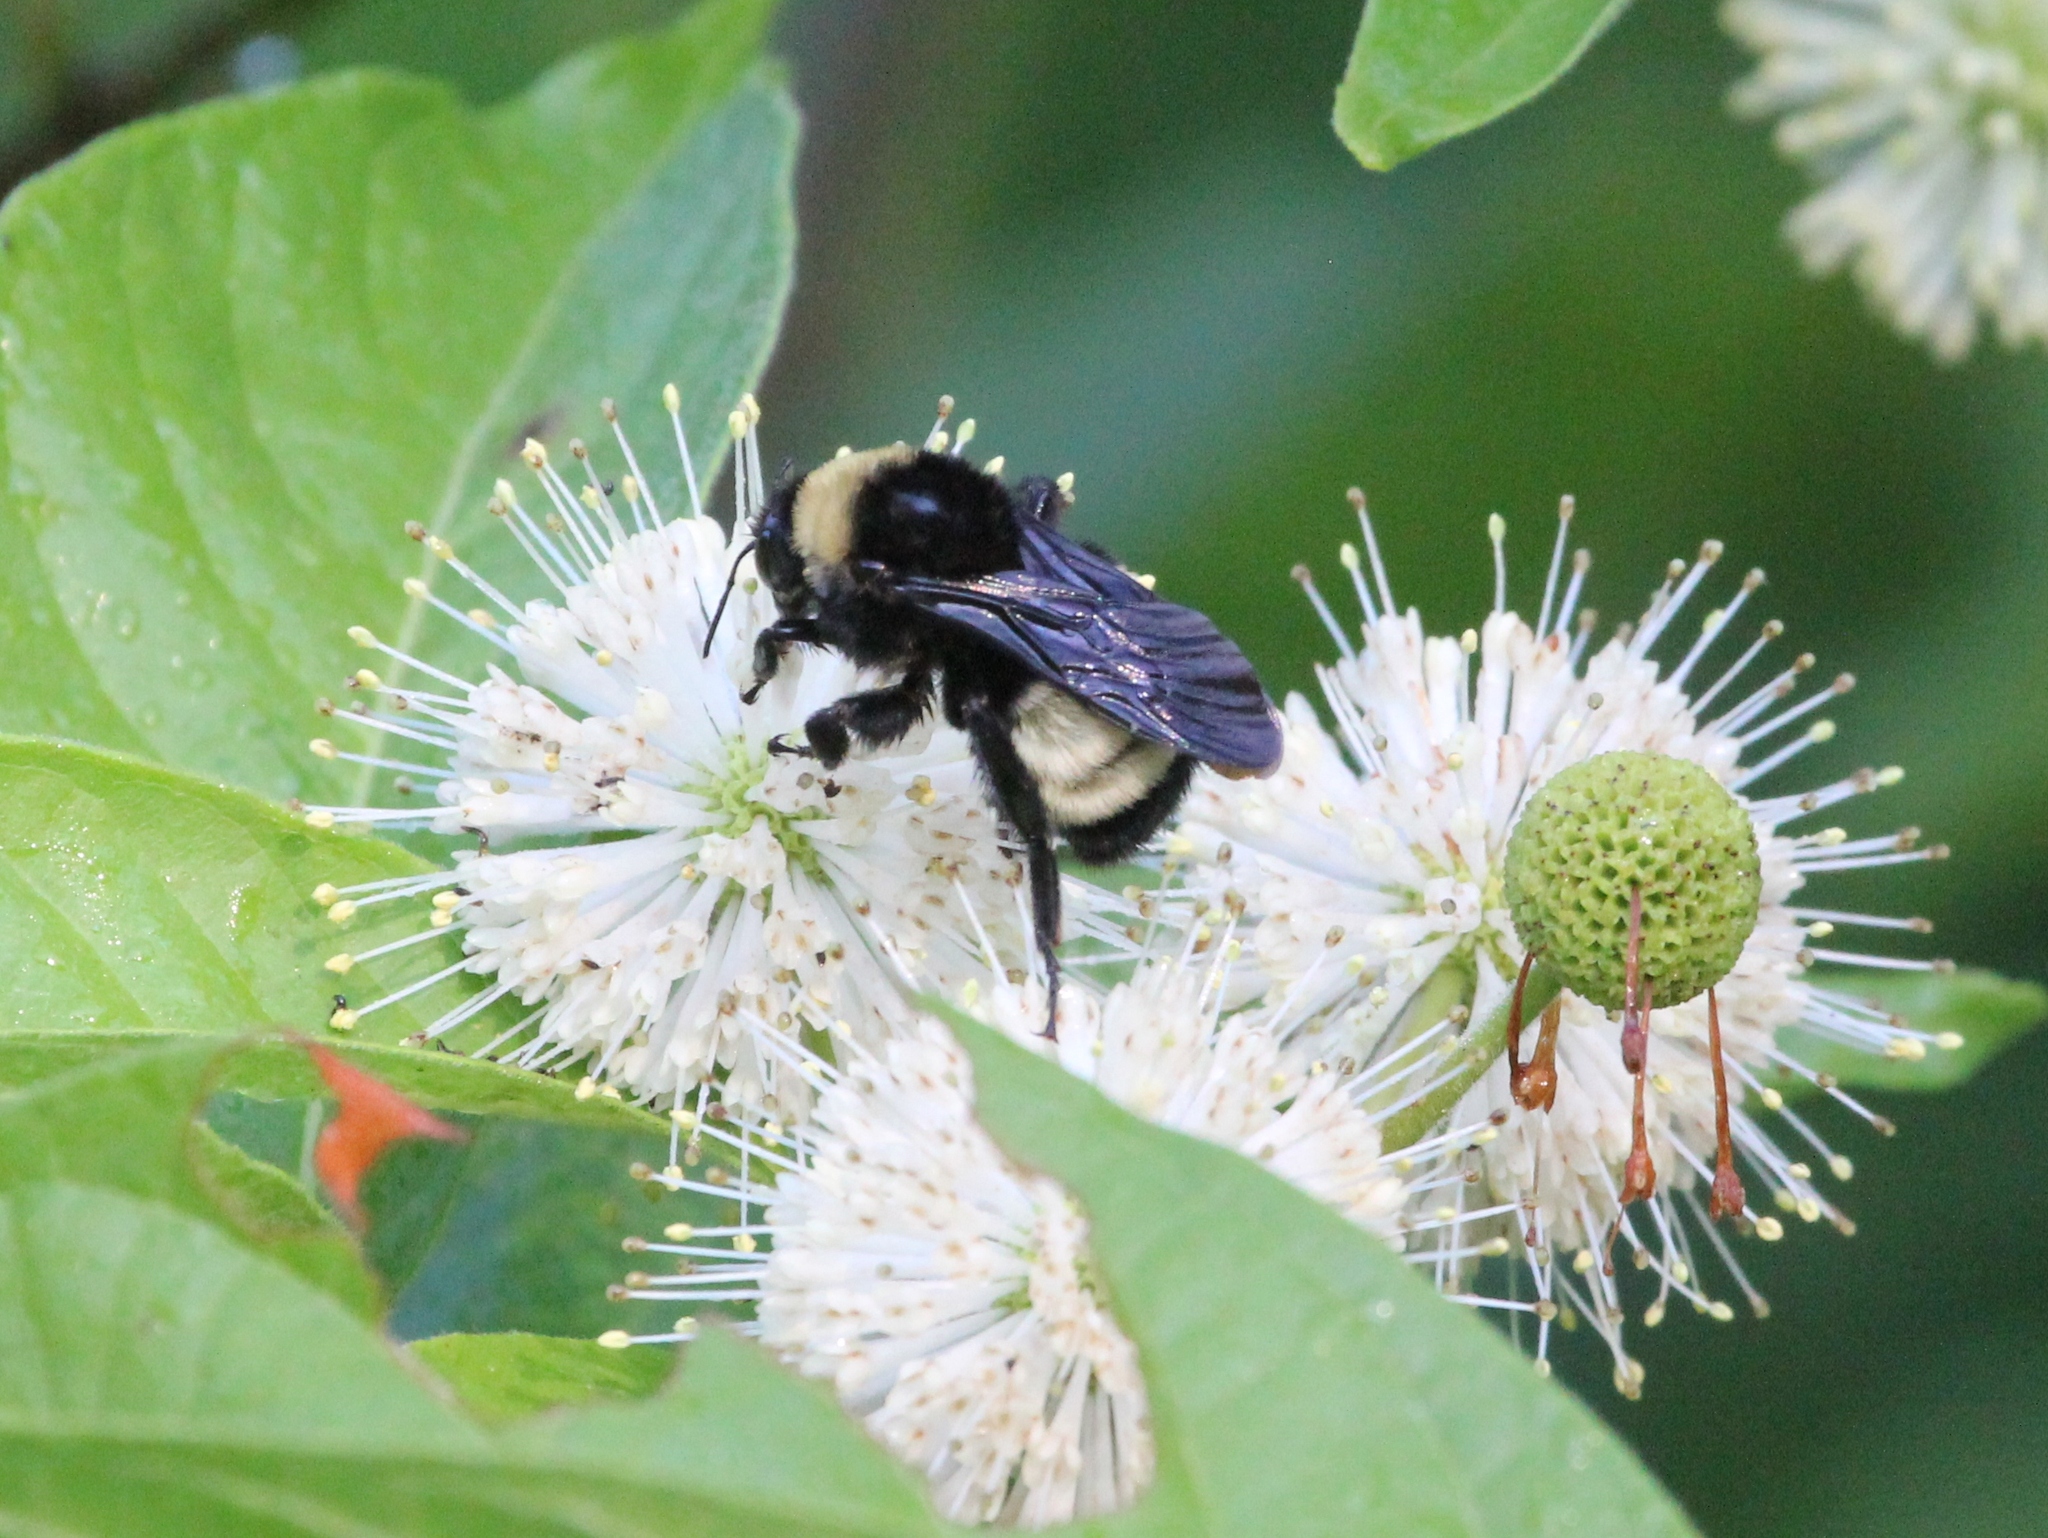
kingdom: Animalia
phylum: Arthropoda
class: Insecta
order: Hymenoptera
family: Apidae
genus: Bombus
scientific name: Bombus pensylvanicus
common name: Bumble bee
